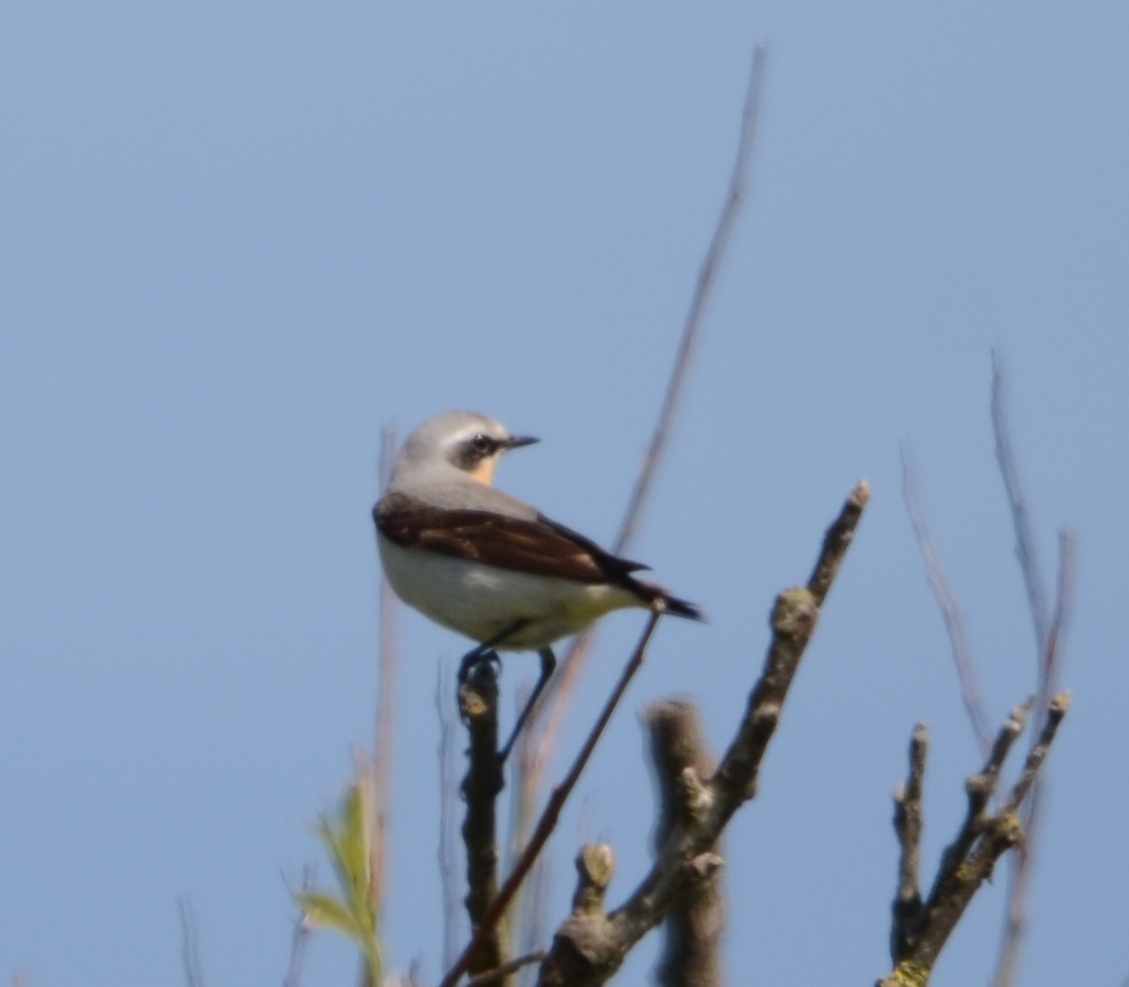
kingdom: Animalia
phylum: Chordata
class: Aves
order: Passeriformes
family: Muscicapidae
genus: Oenanthe
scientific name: Oenanthe oenanthe
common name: Northern wheatear
